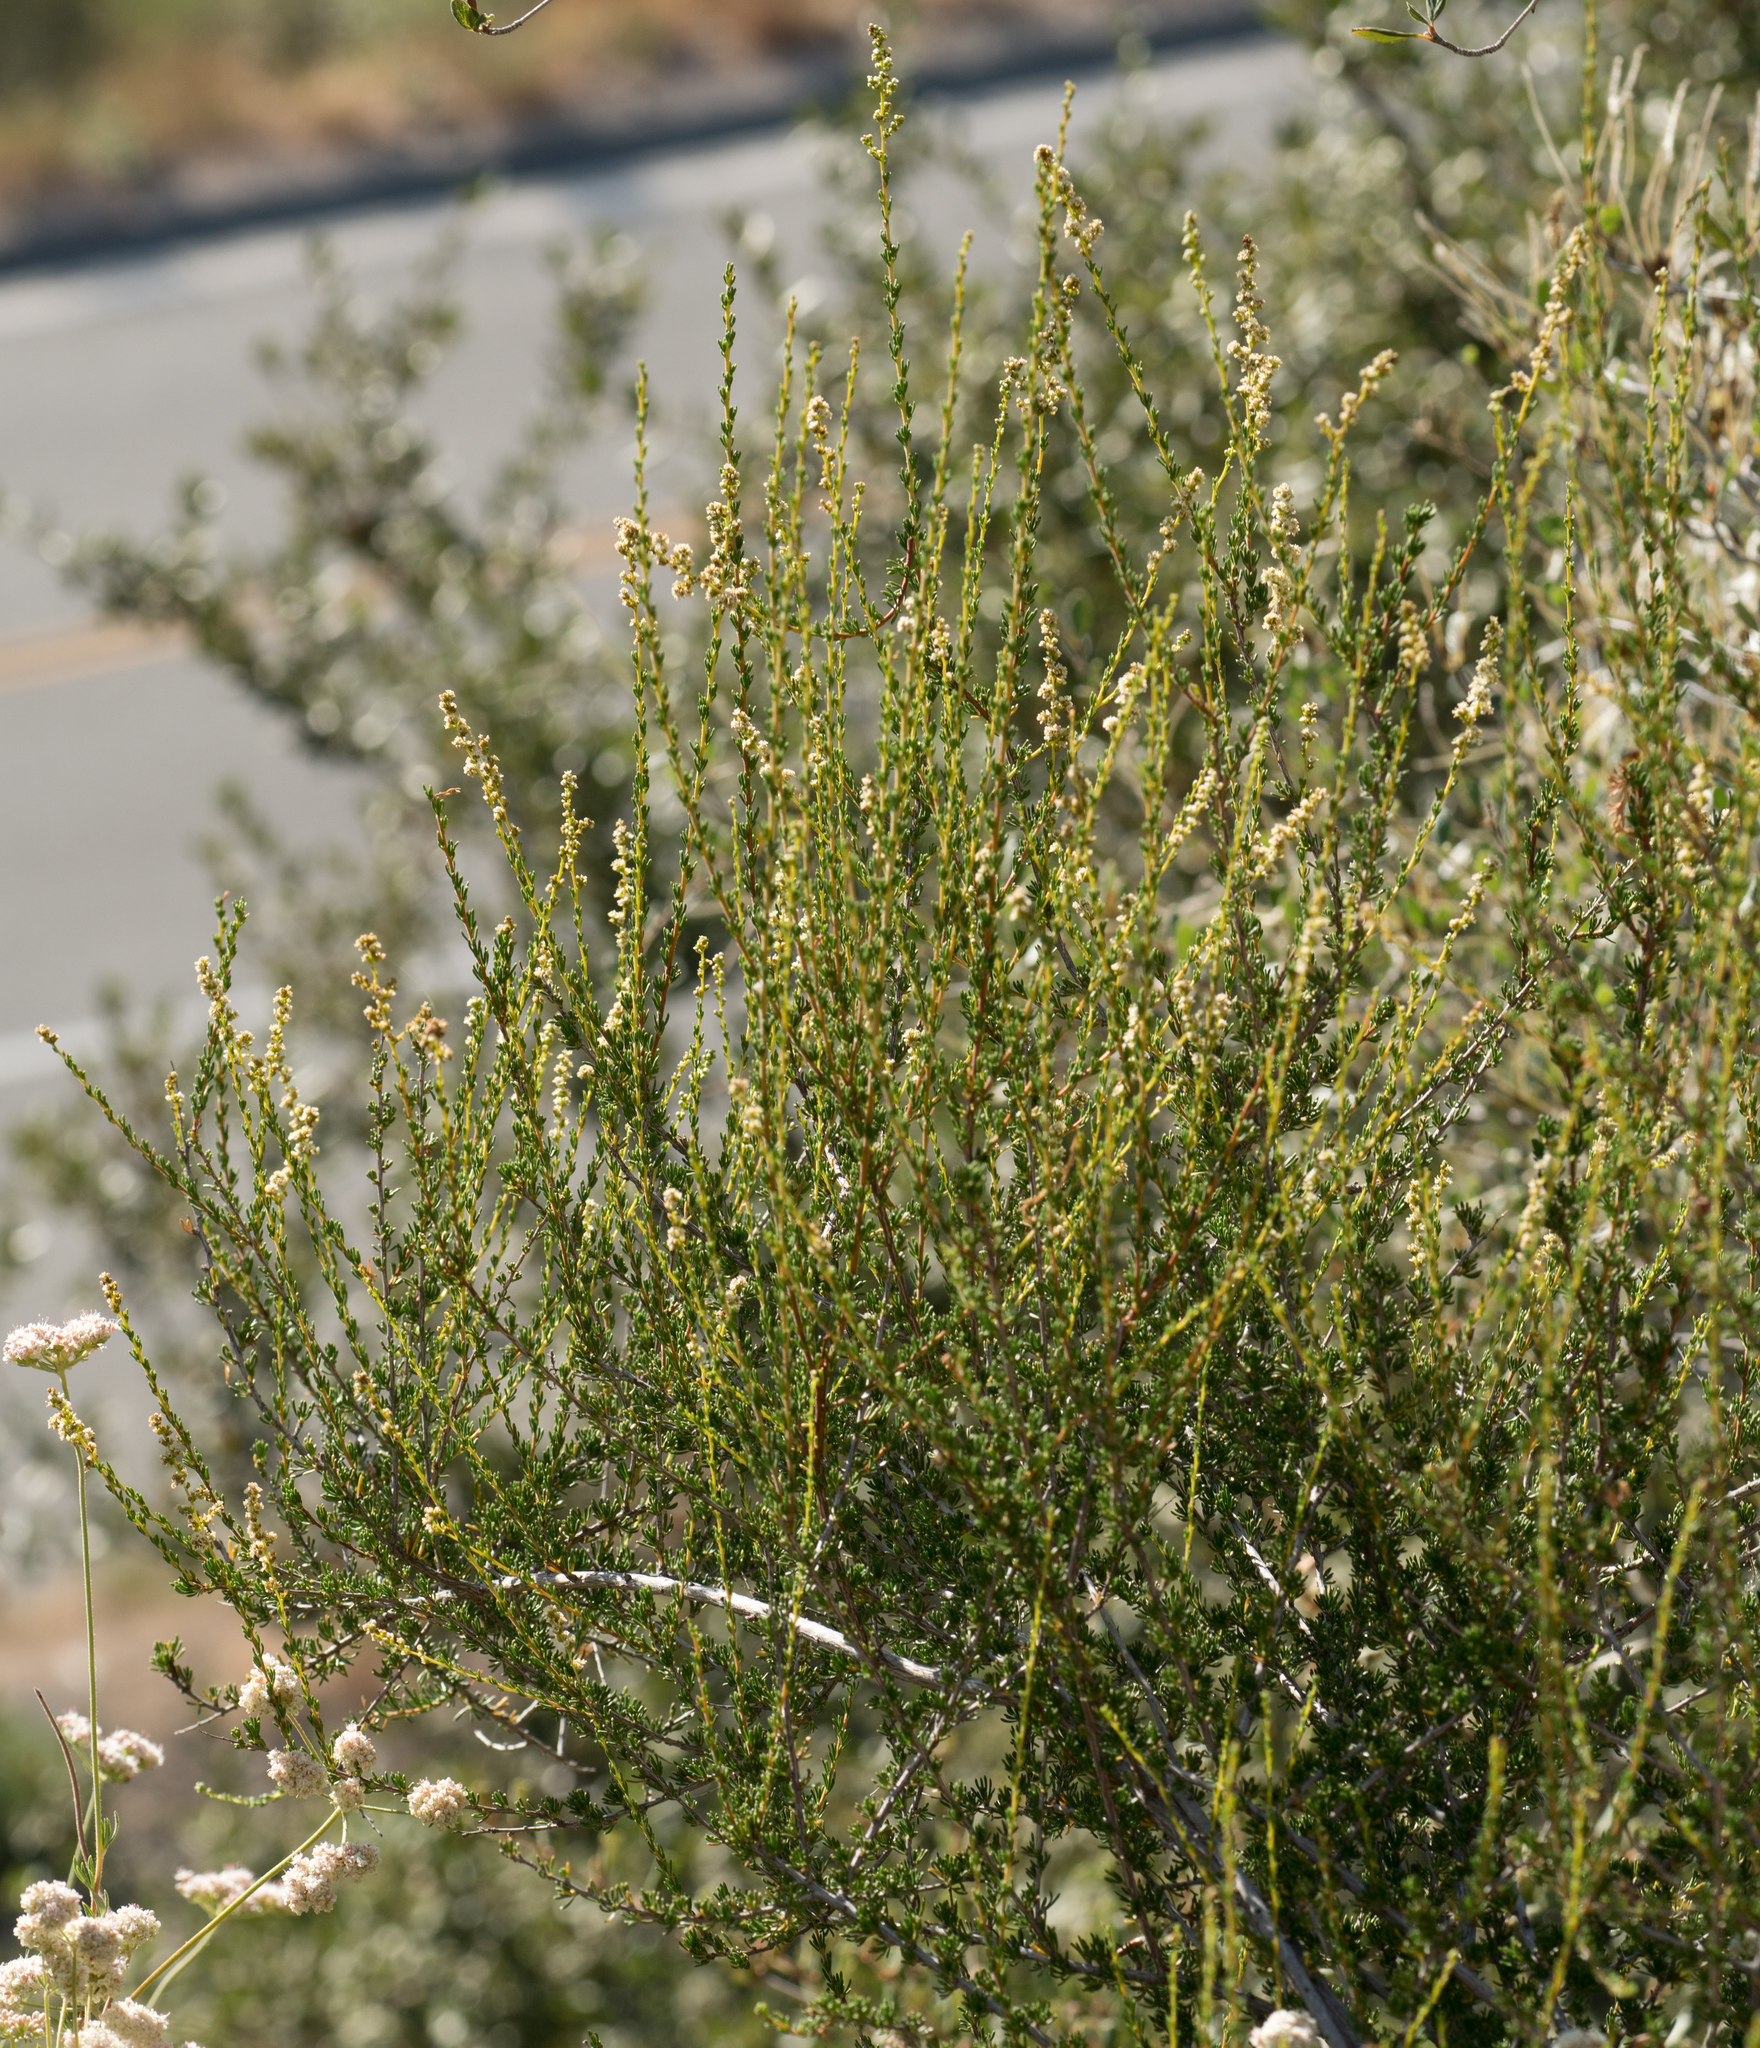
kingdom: Plantae
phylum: Tracheophyta
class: Magnoliopsida
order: Rosales
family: Rosaceae
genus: Adenostoma
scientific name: Adenostoma fasciculatum
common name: Chamise
